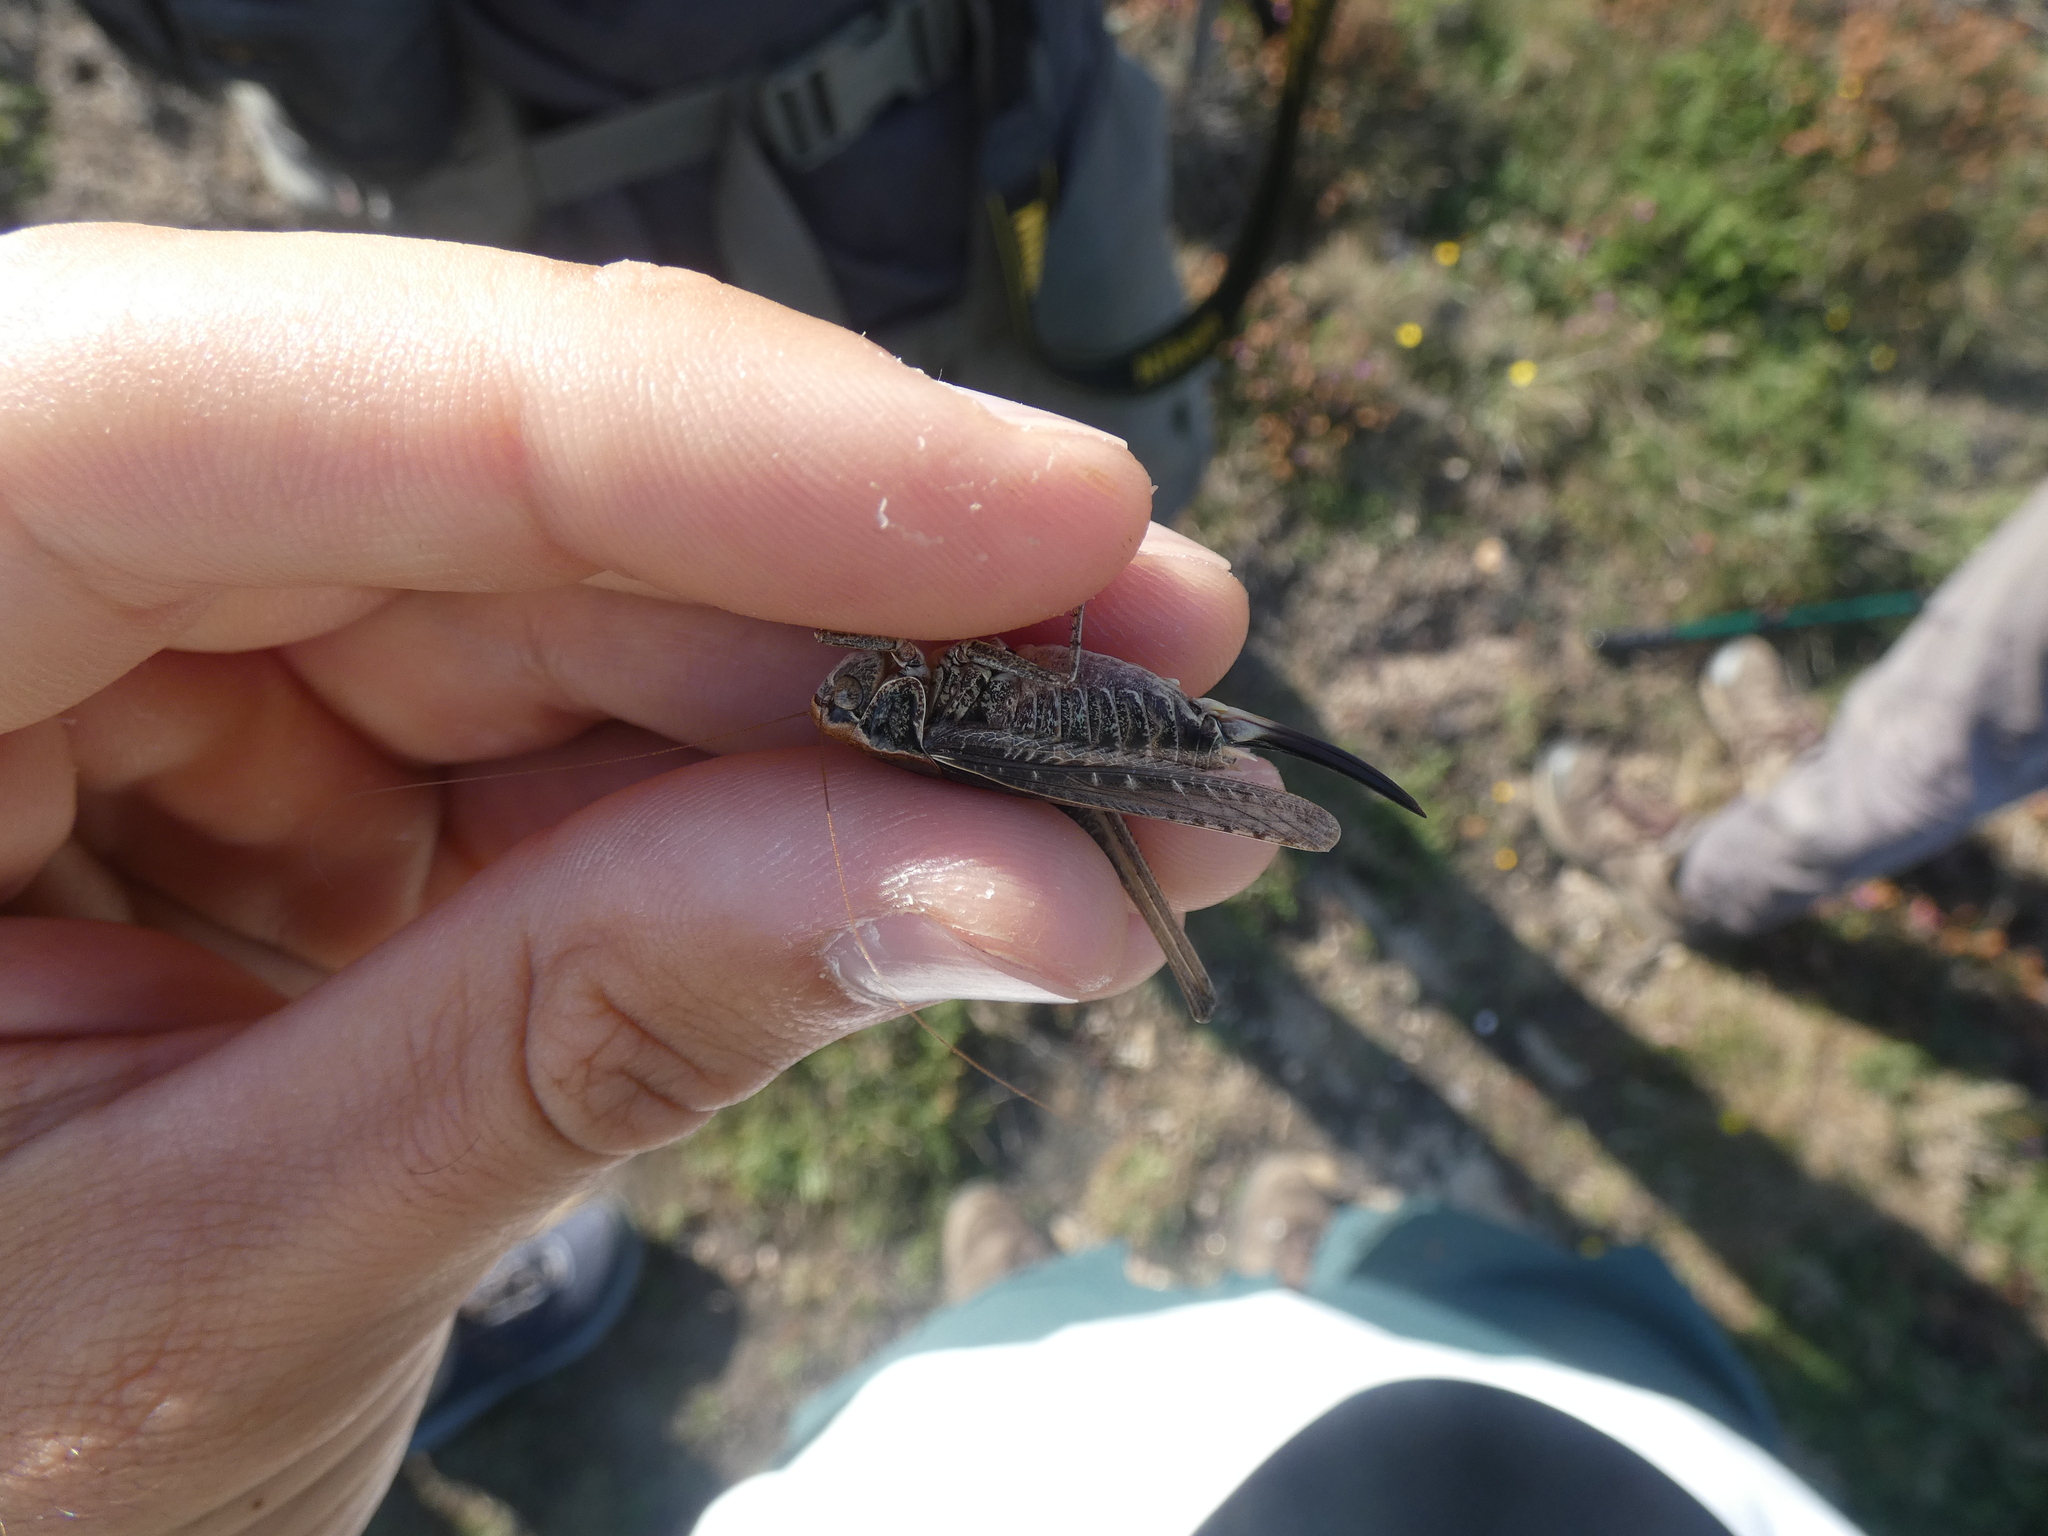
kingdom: Animalia
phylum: Arthropoda
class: Insecta
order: Orthoptera
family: Tettigoniidae
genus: Platycleis
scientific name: Platycleis affinis
